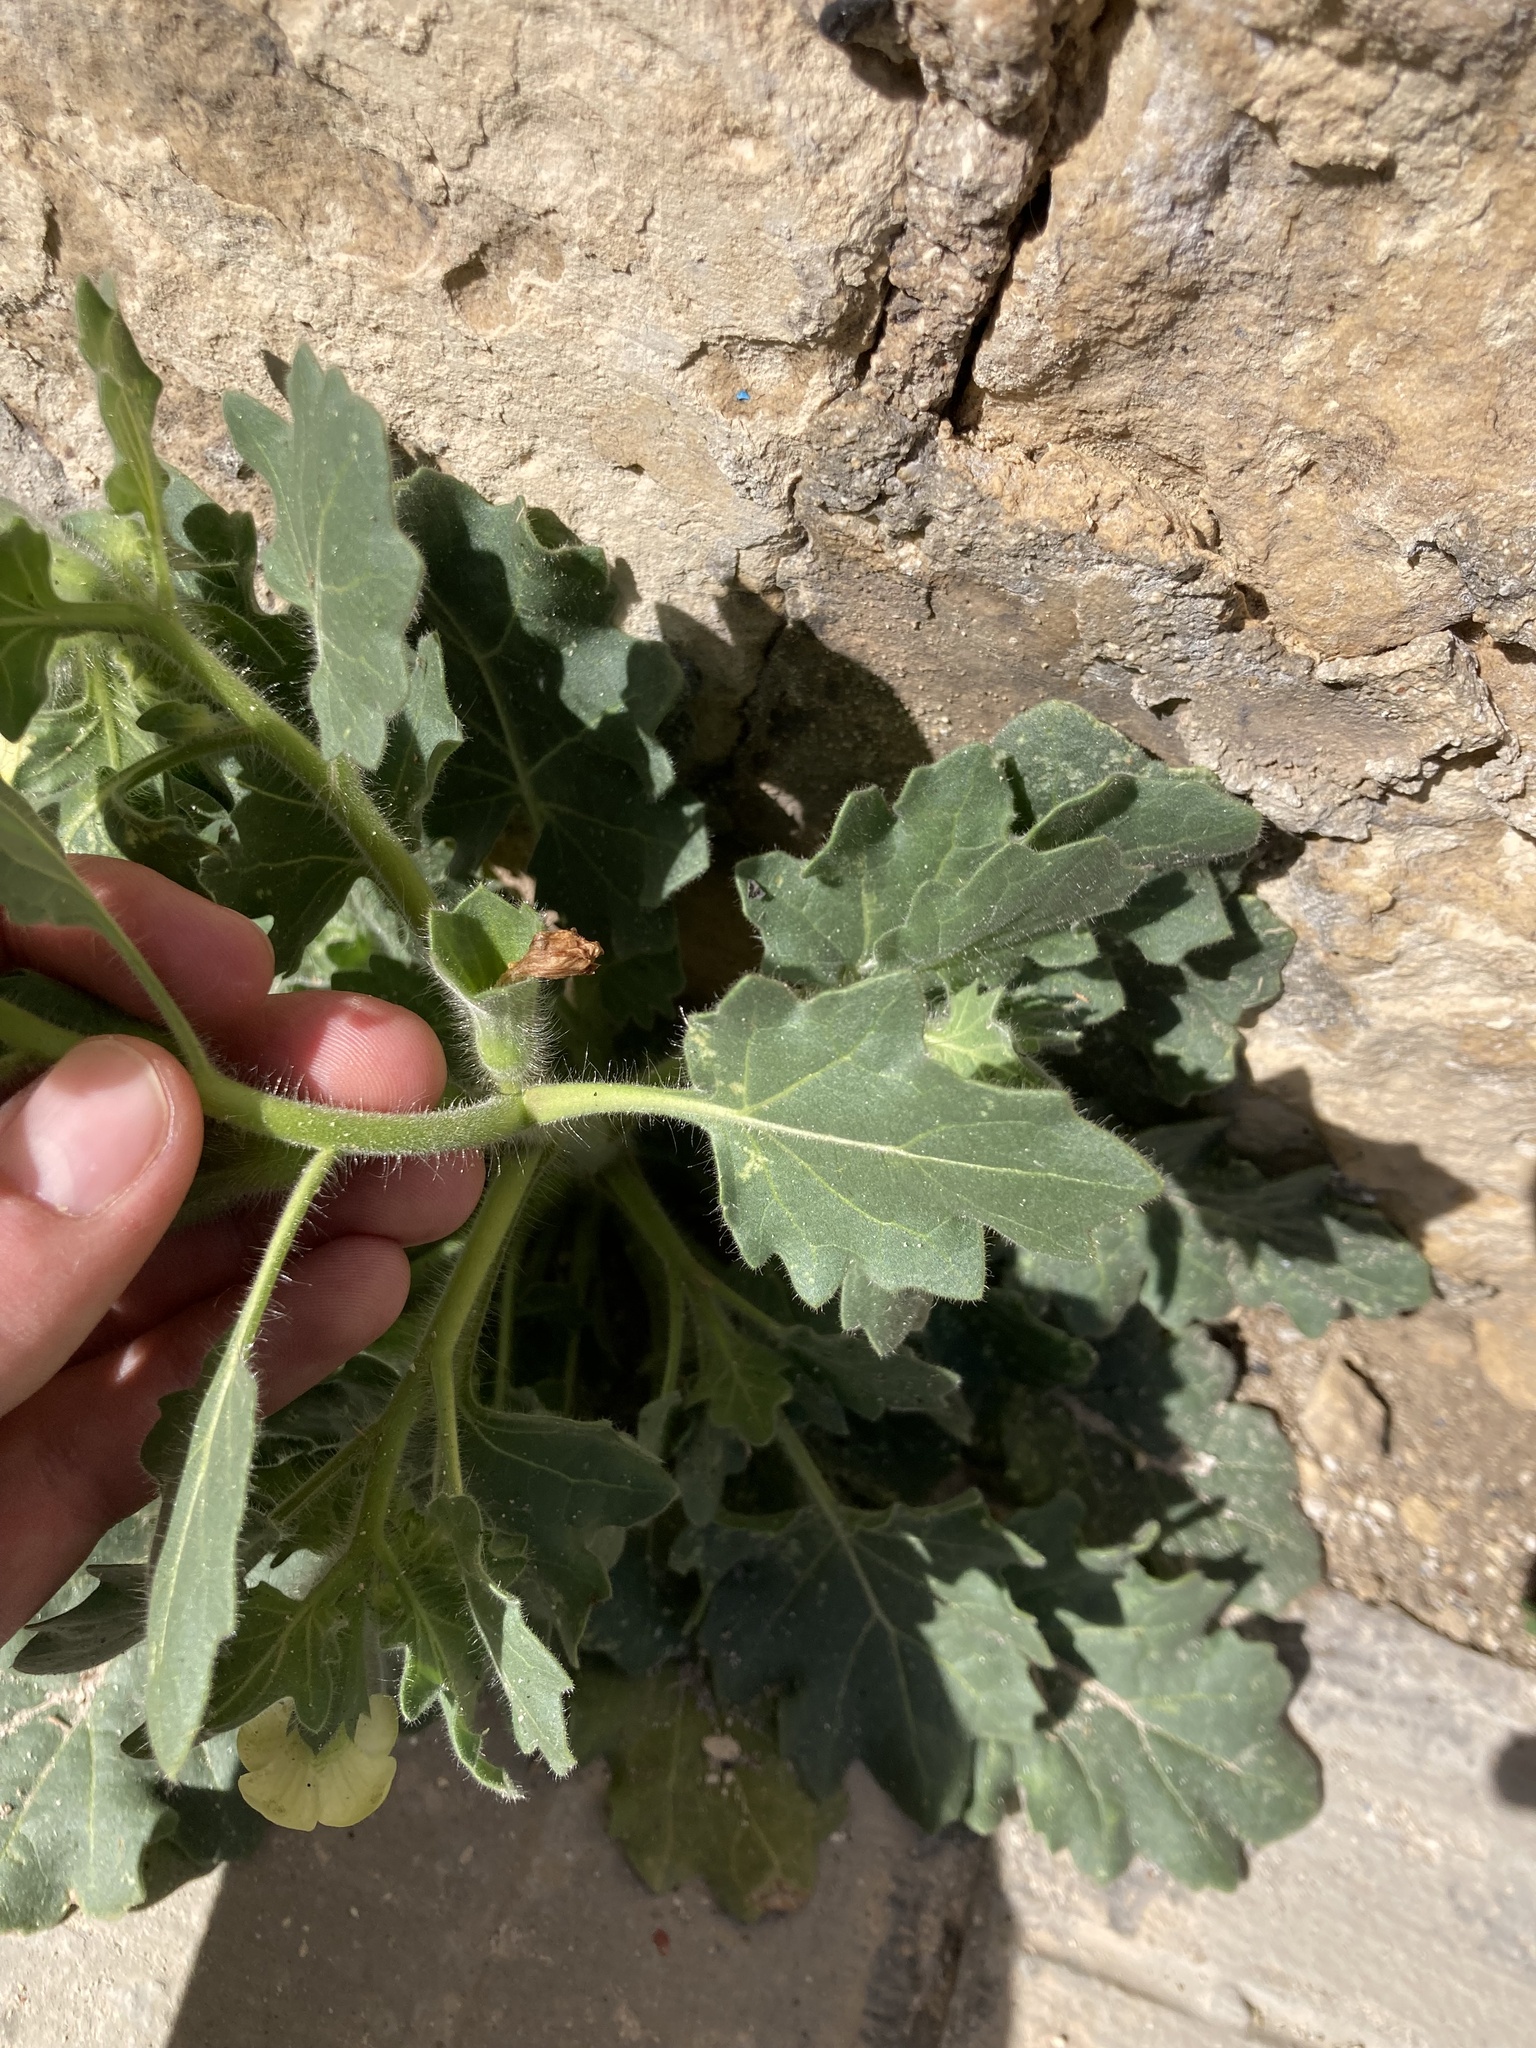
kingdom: Plantae
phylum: Tracheophyta
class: Magnoliopsida
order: Solanales
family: Solanaceae
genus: Hyoscyamus
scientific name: Hyoscyamus albus
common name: White henbane
